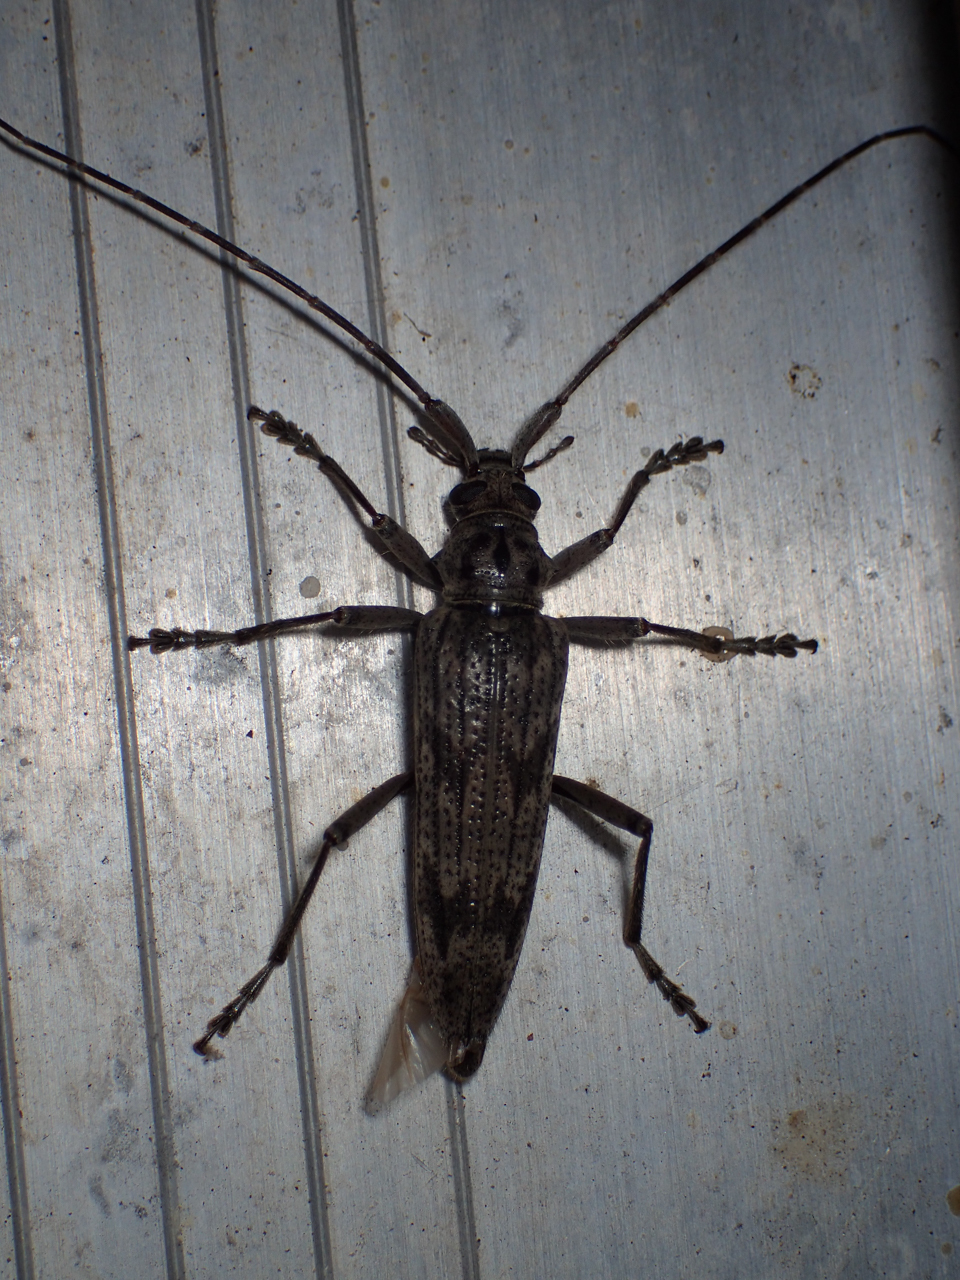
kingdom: Animalia
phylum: Arthropoda
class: Insecta
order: Coleoptera
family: Cerambycidae
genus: Elytrimitatrix
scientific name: Elytrimitatrix undata
